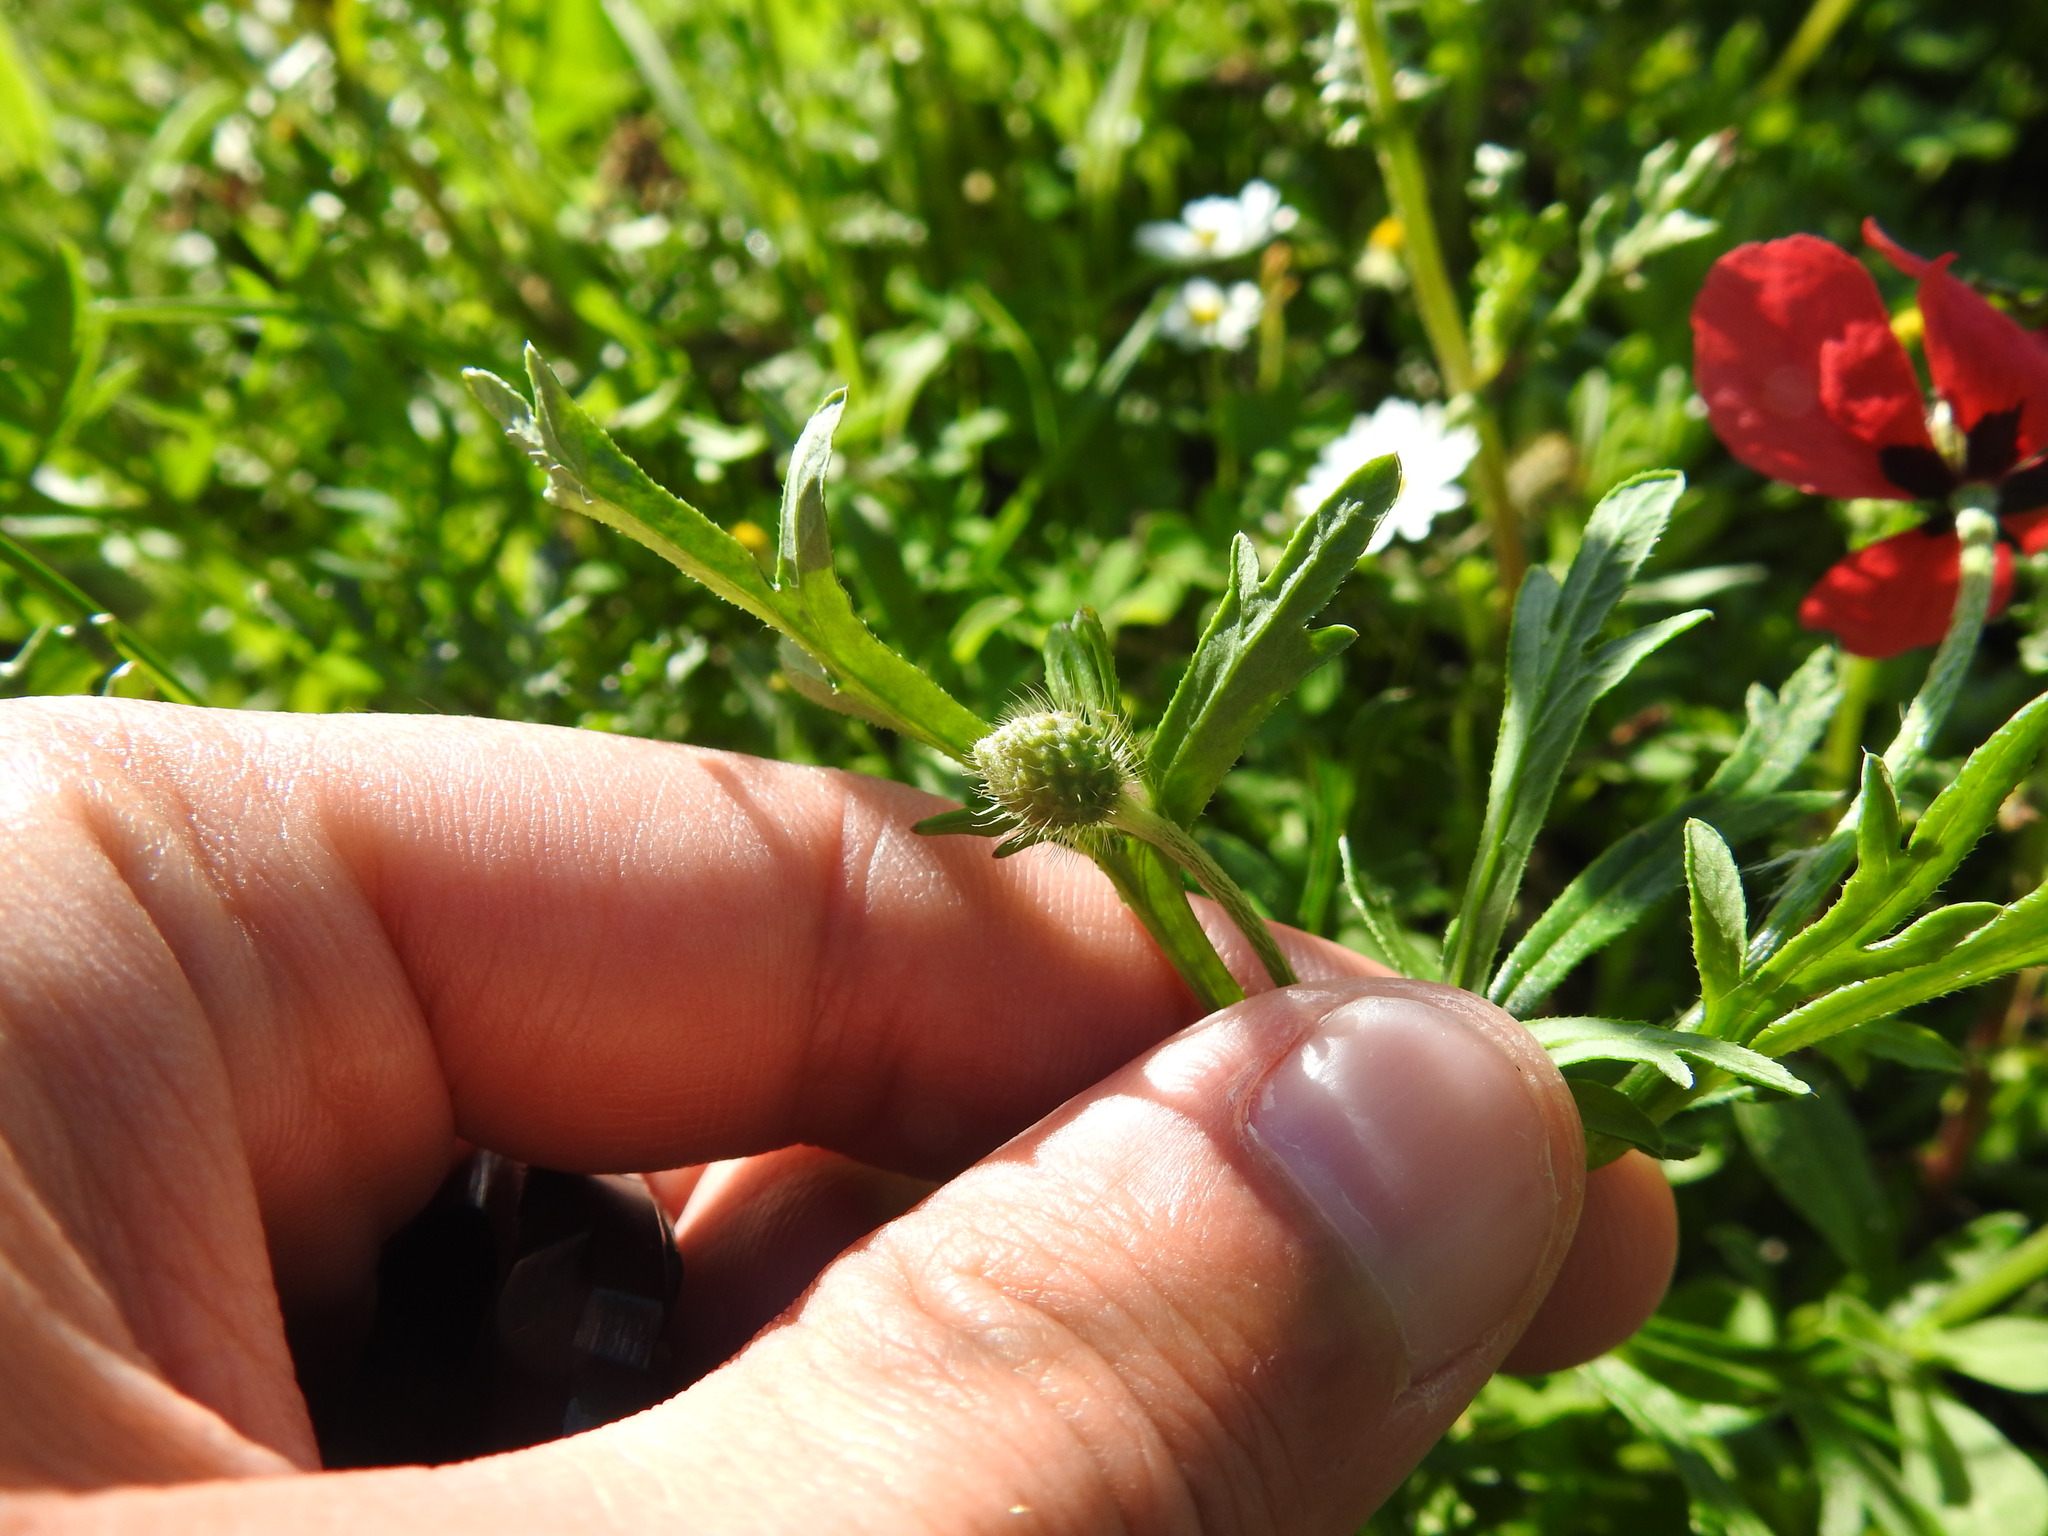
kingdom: Plantae
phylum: Tracheophyta
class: Magnoliopsida
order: Ranunculales
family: Papaveraceae
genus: Roemeria
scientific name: Roemeria hispida
